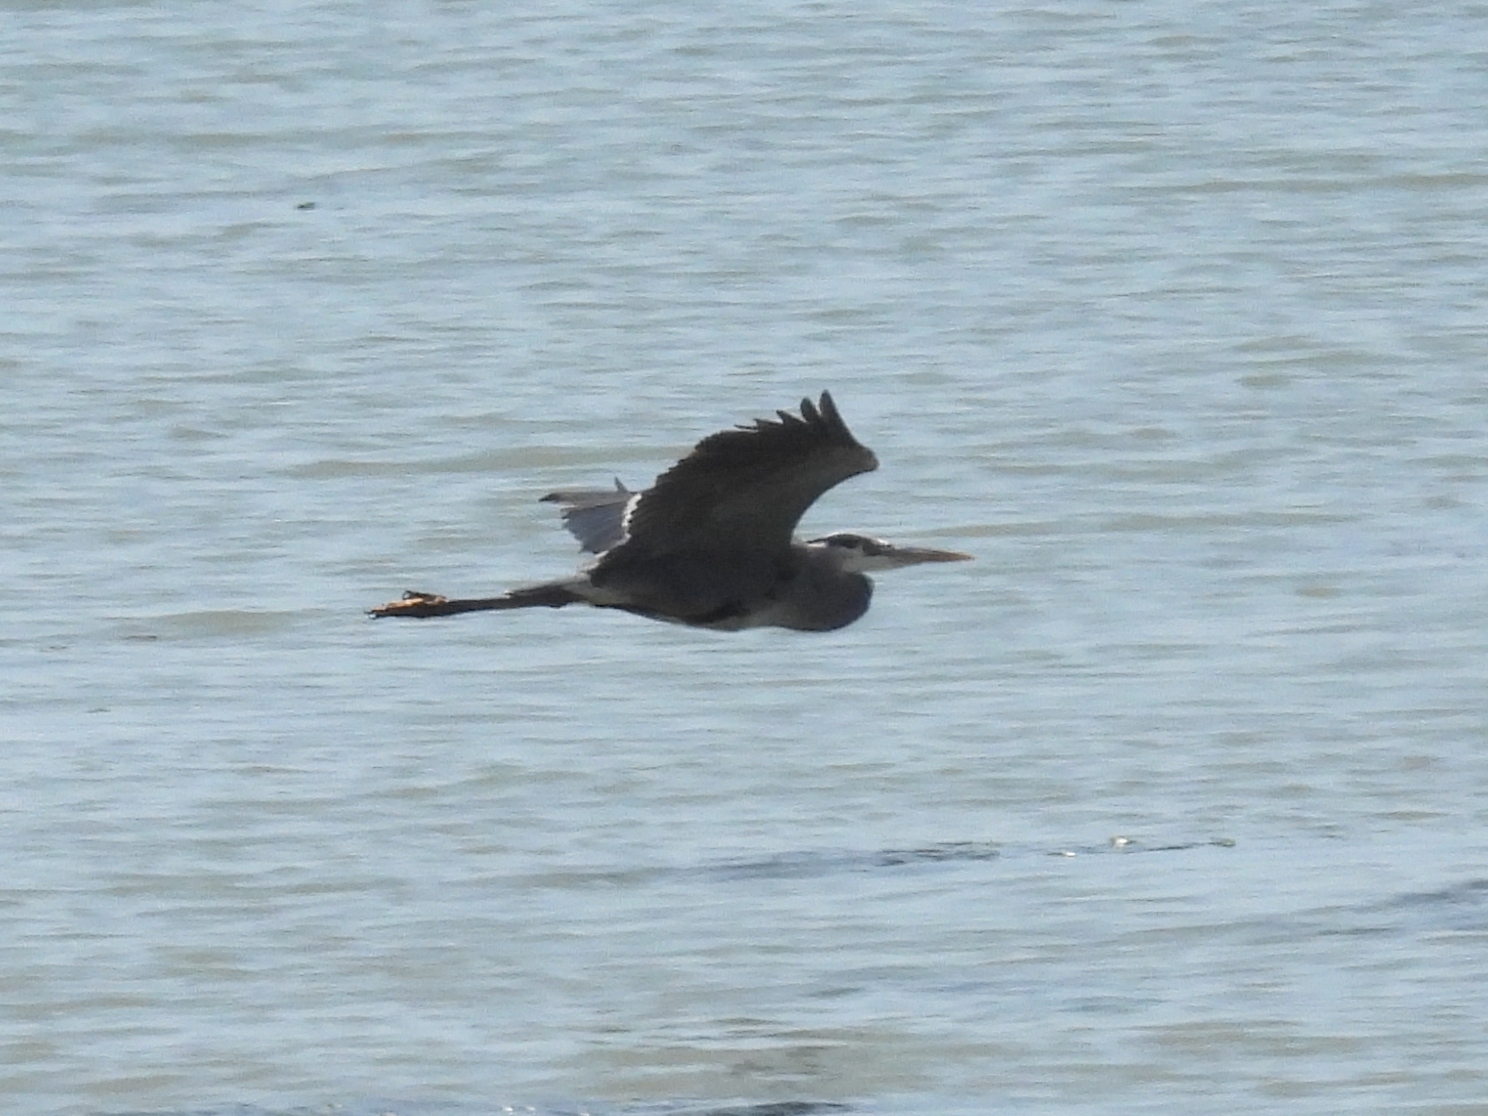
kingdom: Animalia
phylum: Chordata
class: Aves
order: Pelecaniformes
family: Ardeidae
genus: Ardea
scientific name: Ardea herodias
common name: Great blue heron
